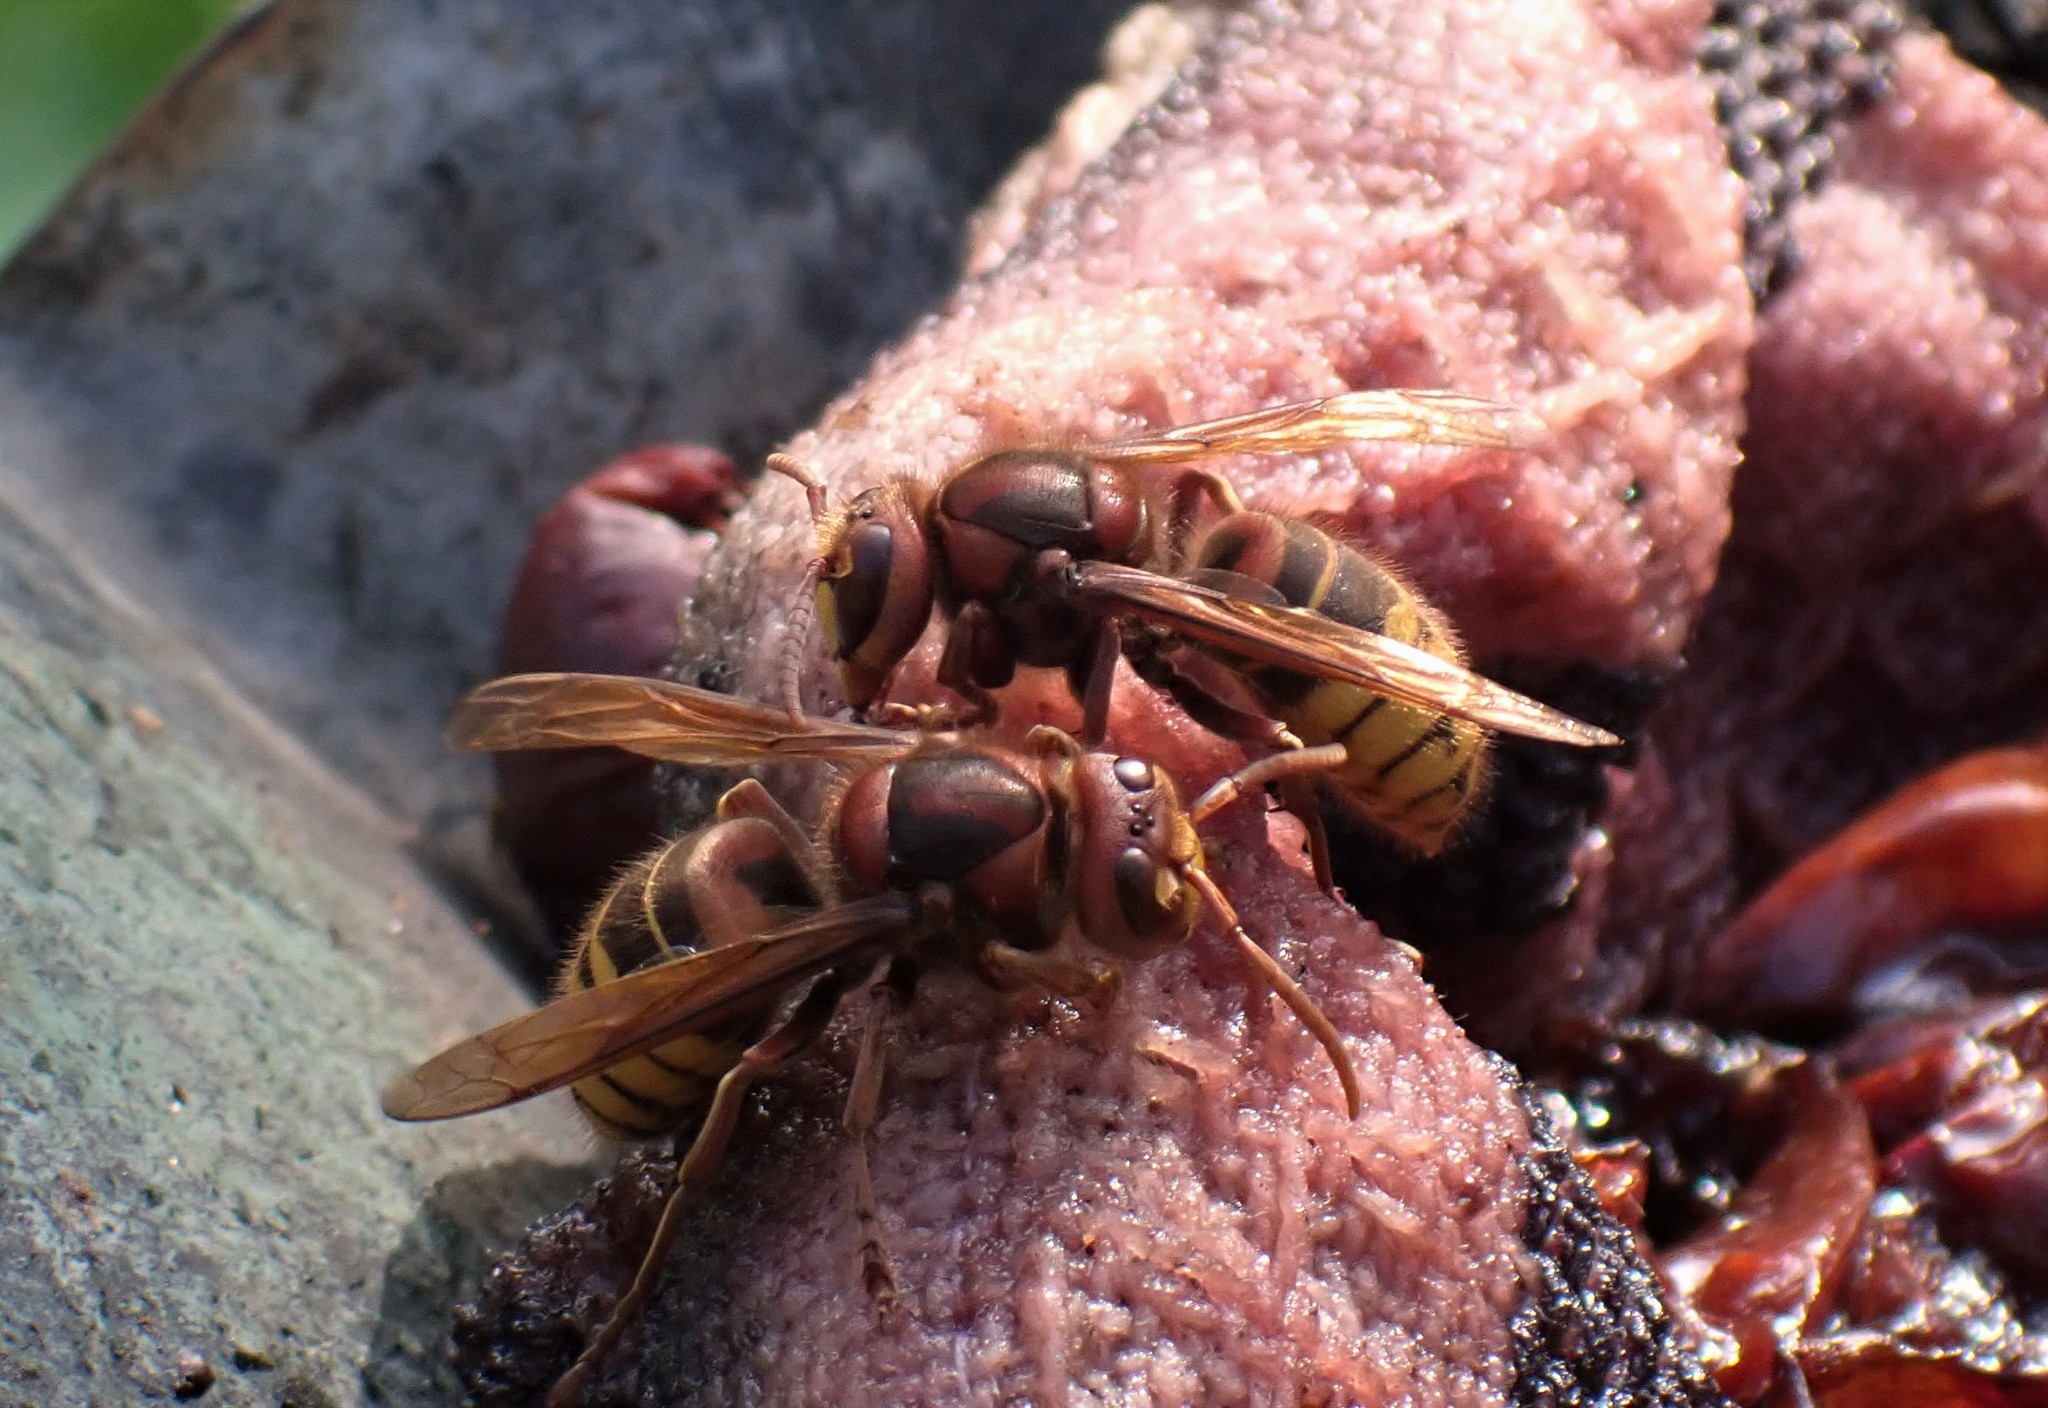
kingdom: Animalia
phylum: Arthropoda
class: Insecta
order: Hymenoptera
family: Vespidae
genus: Vespa
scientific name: Vespa crabro
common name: Hornet
